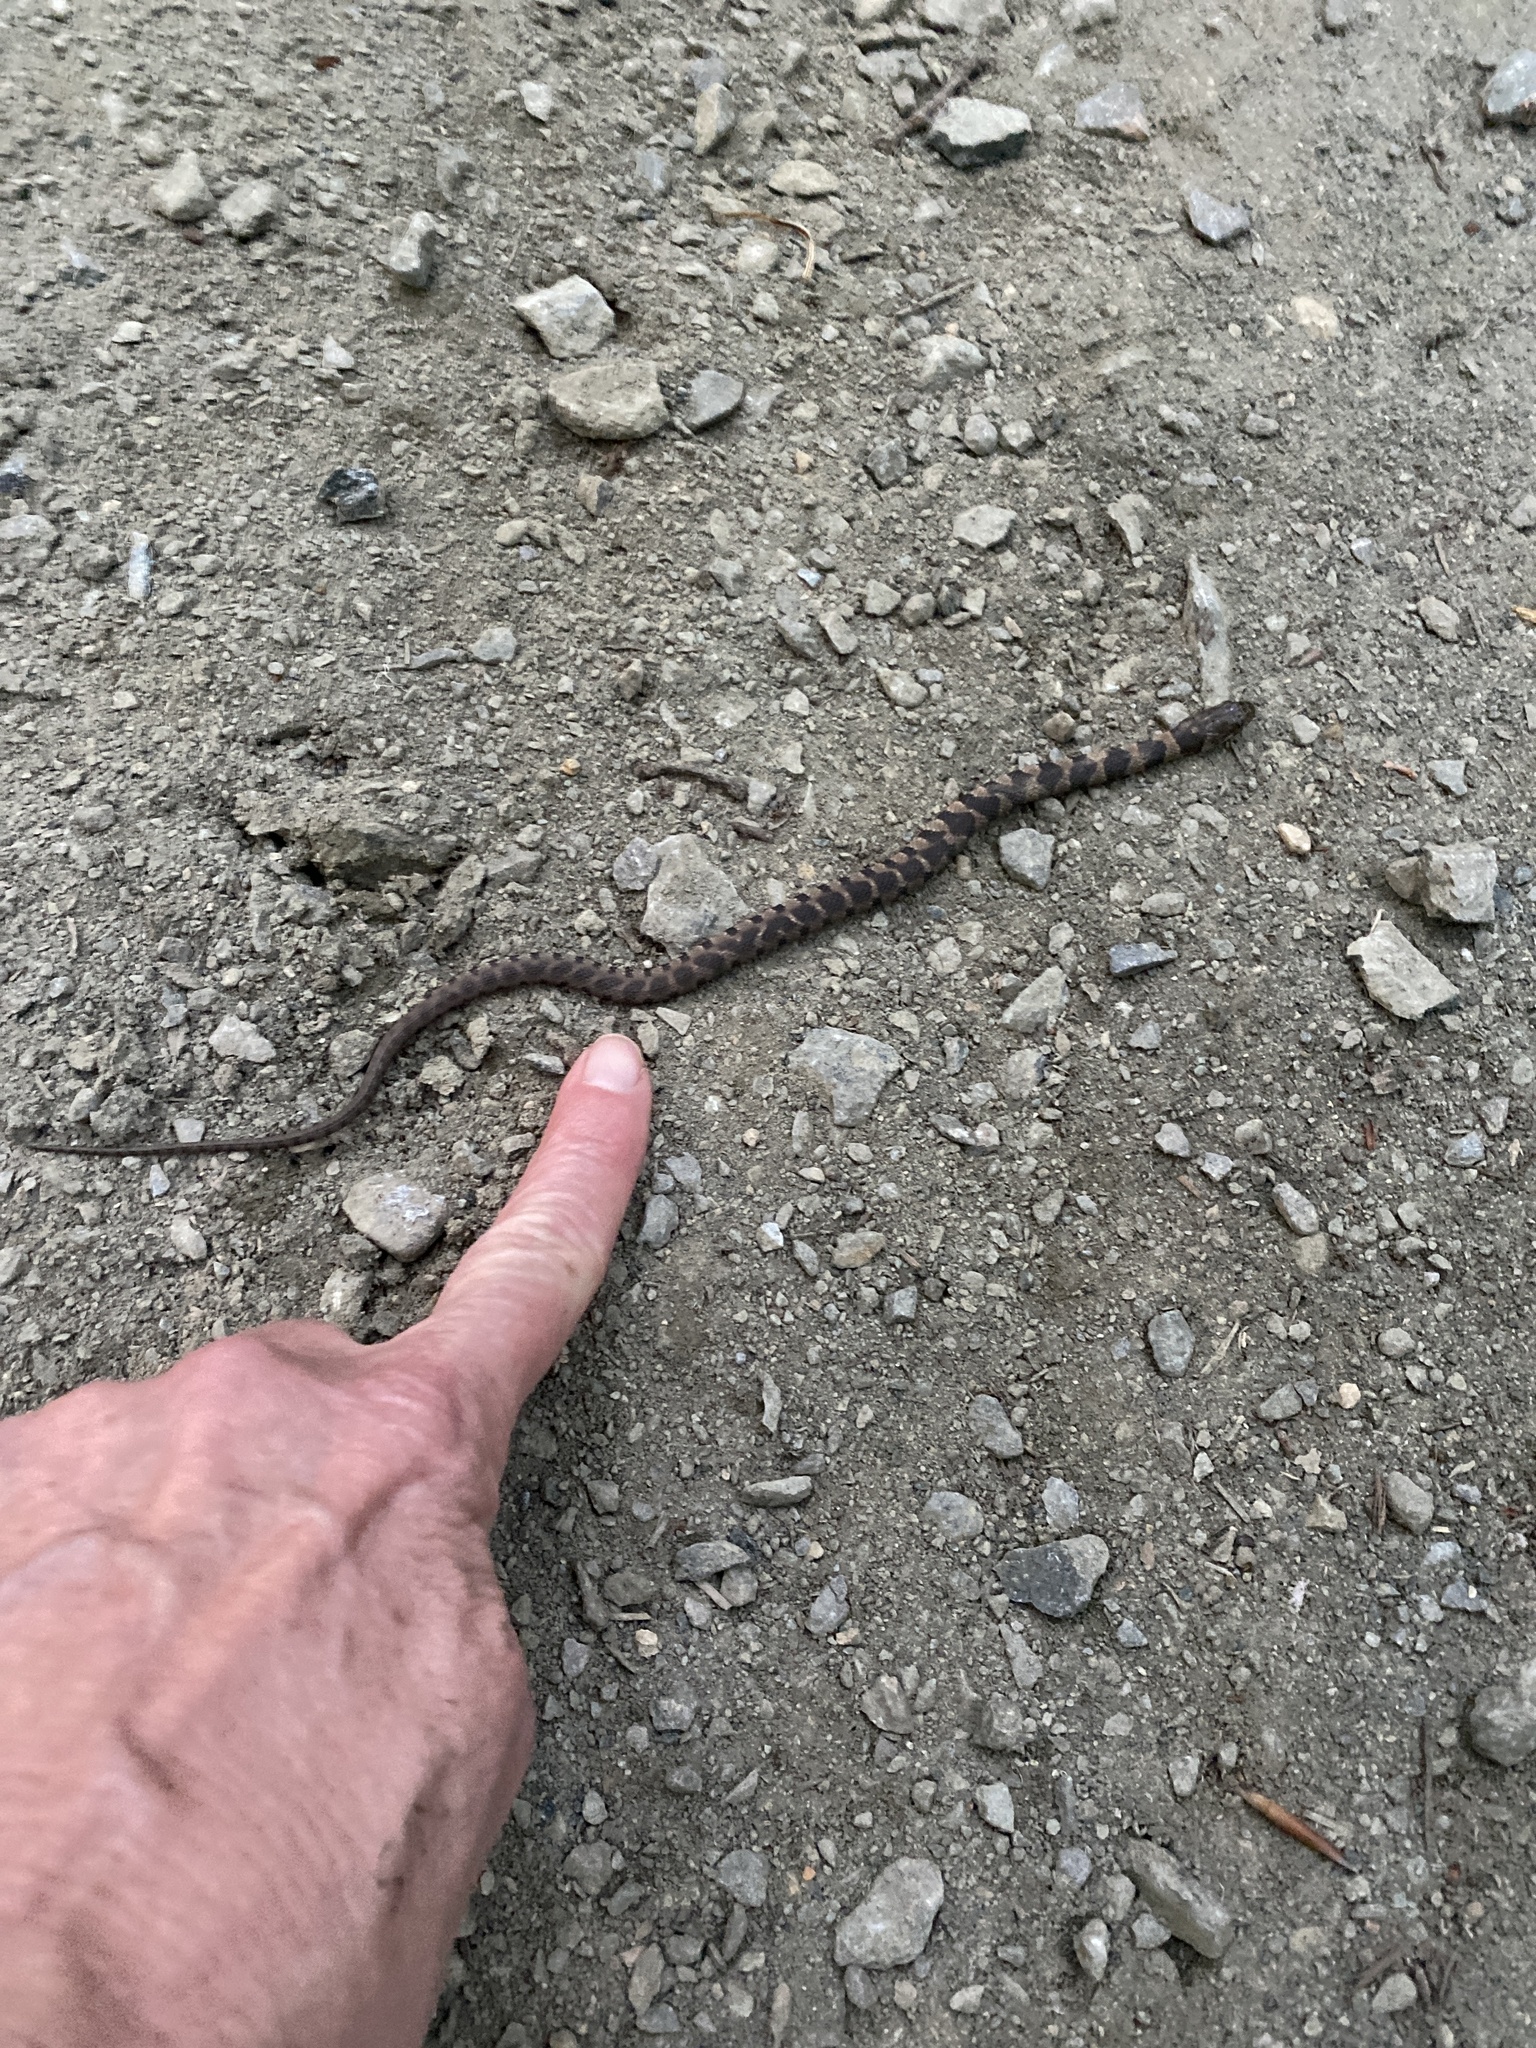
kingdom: Animalia
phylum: Chordata
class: Squamata
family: Colubridae
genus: Nerodia
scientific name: Nerodia sipedon
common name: Northern water snake
